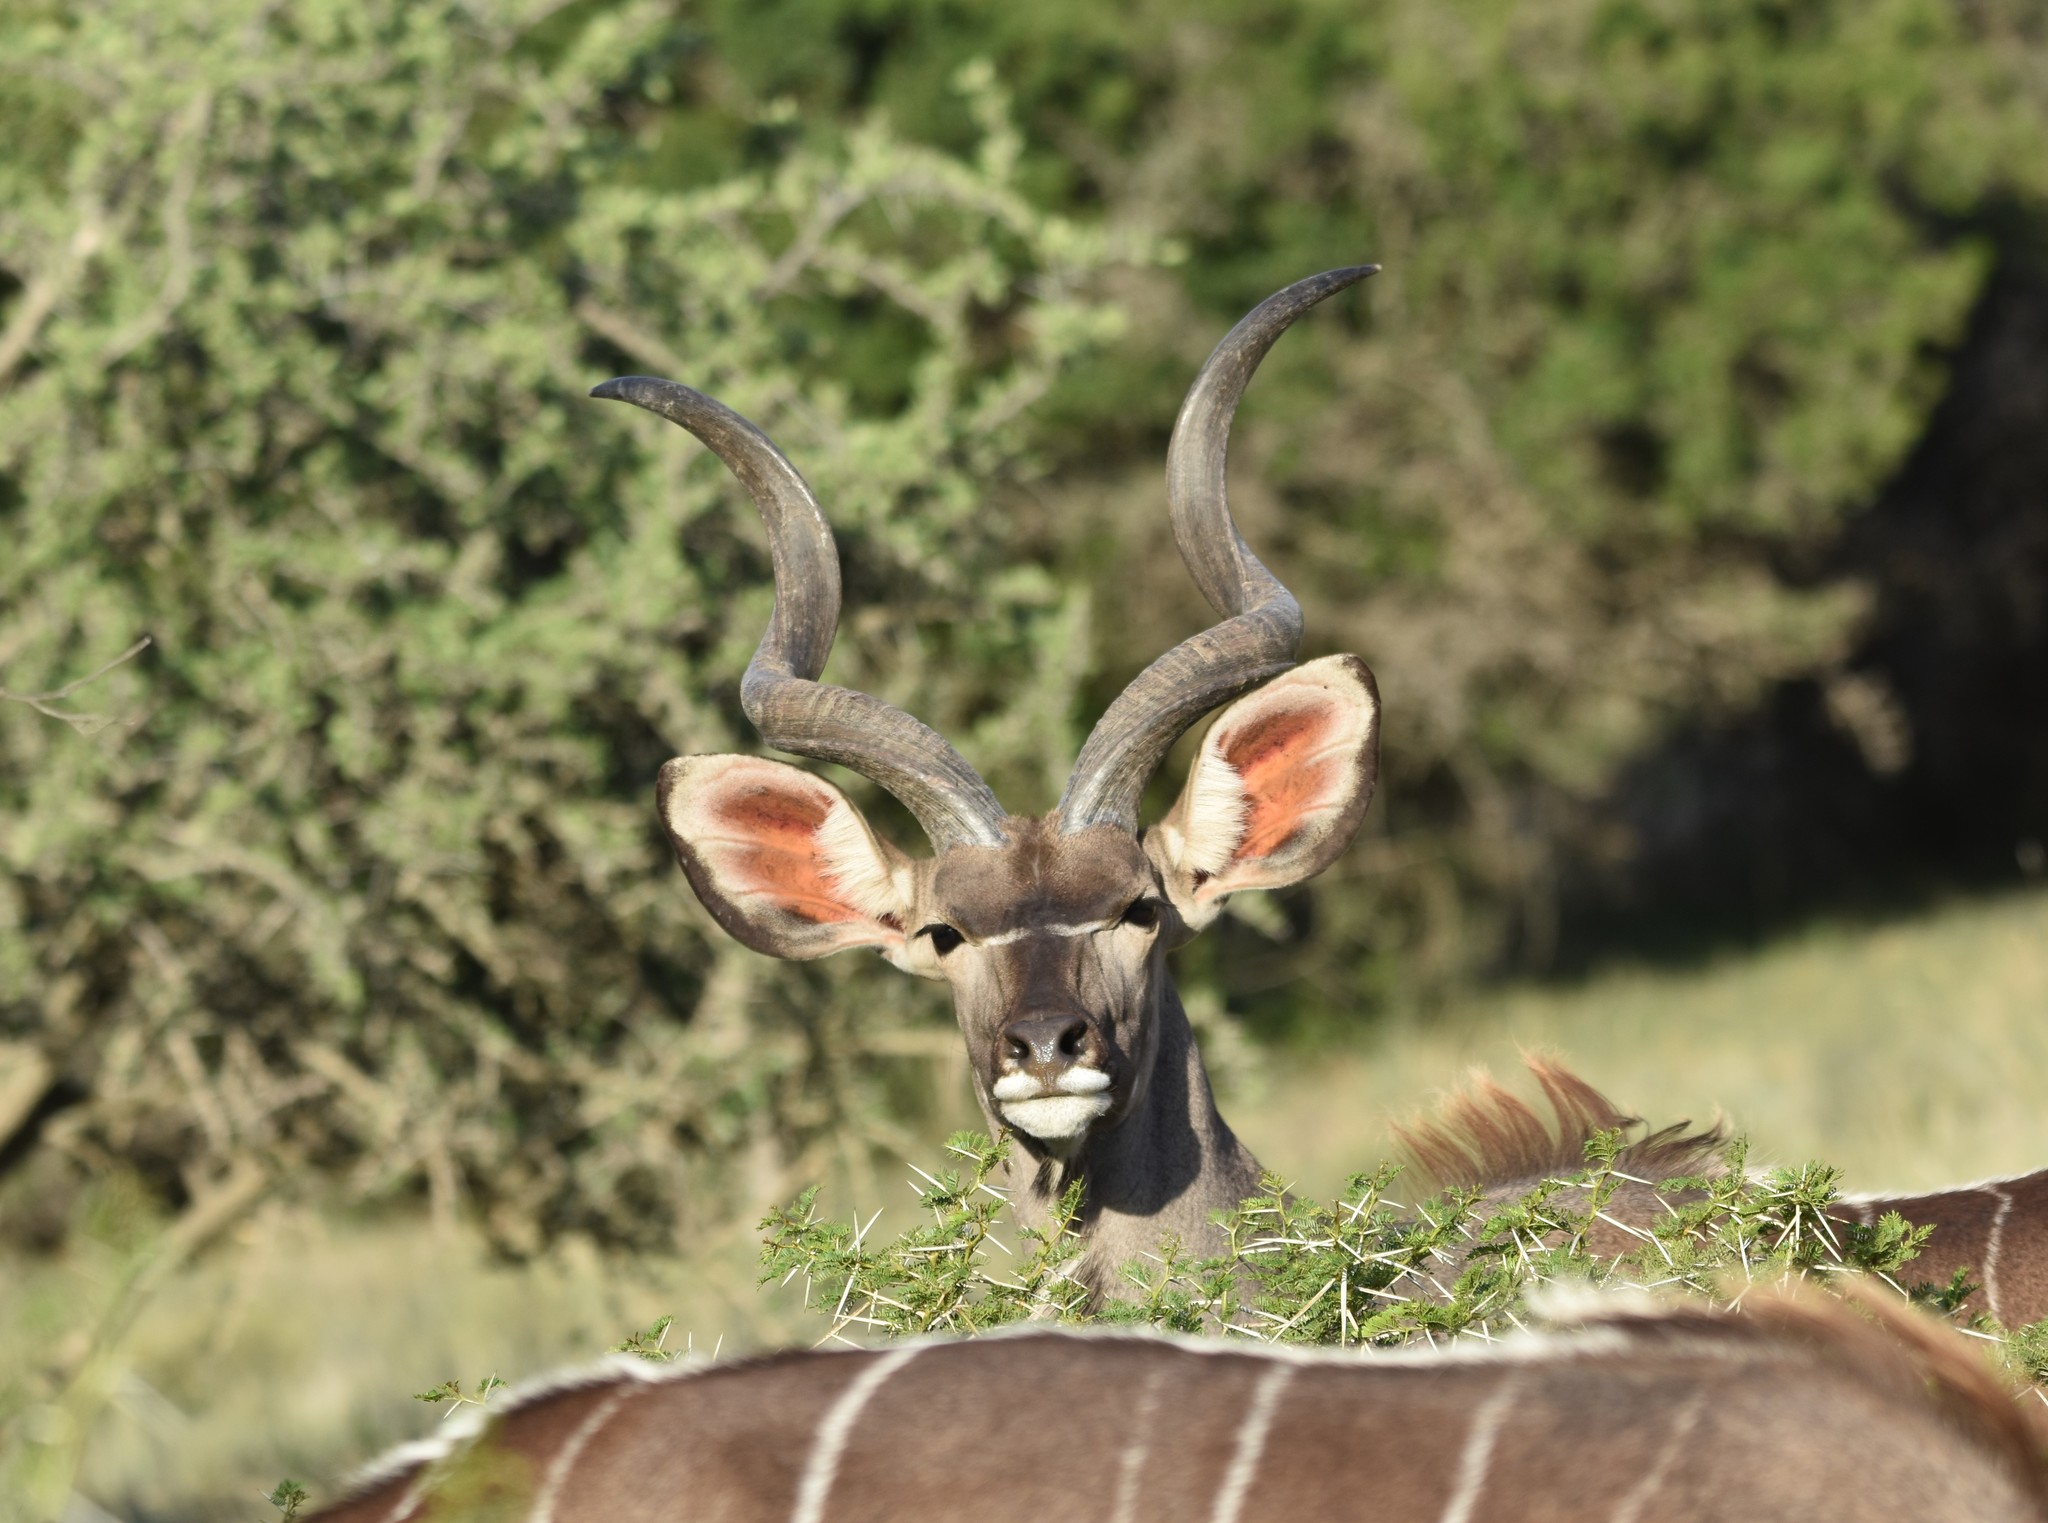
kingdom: Animalia
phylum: Chordata
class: Mammalia
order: Artiodactyla
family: Bovidae
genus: Tragelaphus
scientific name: Tragelaphus strepsiceros
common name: Greater kudu
